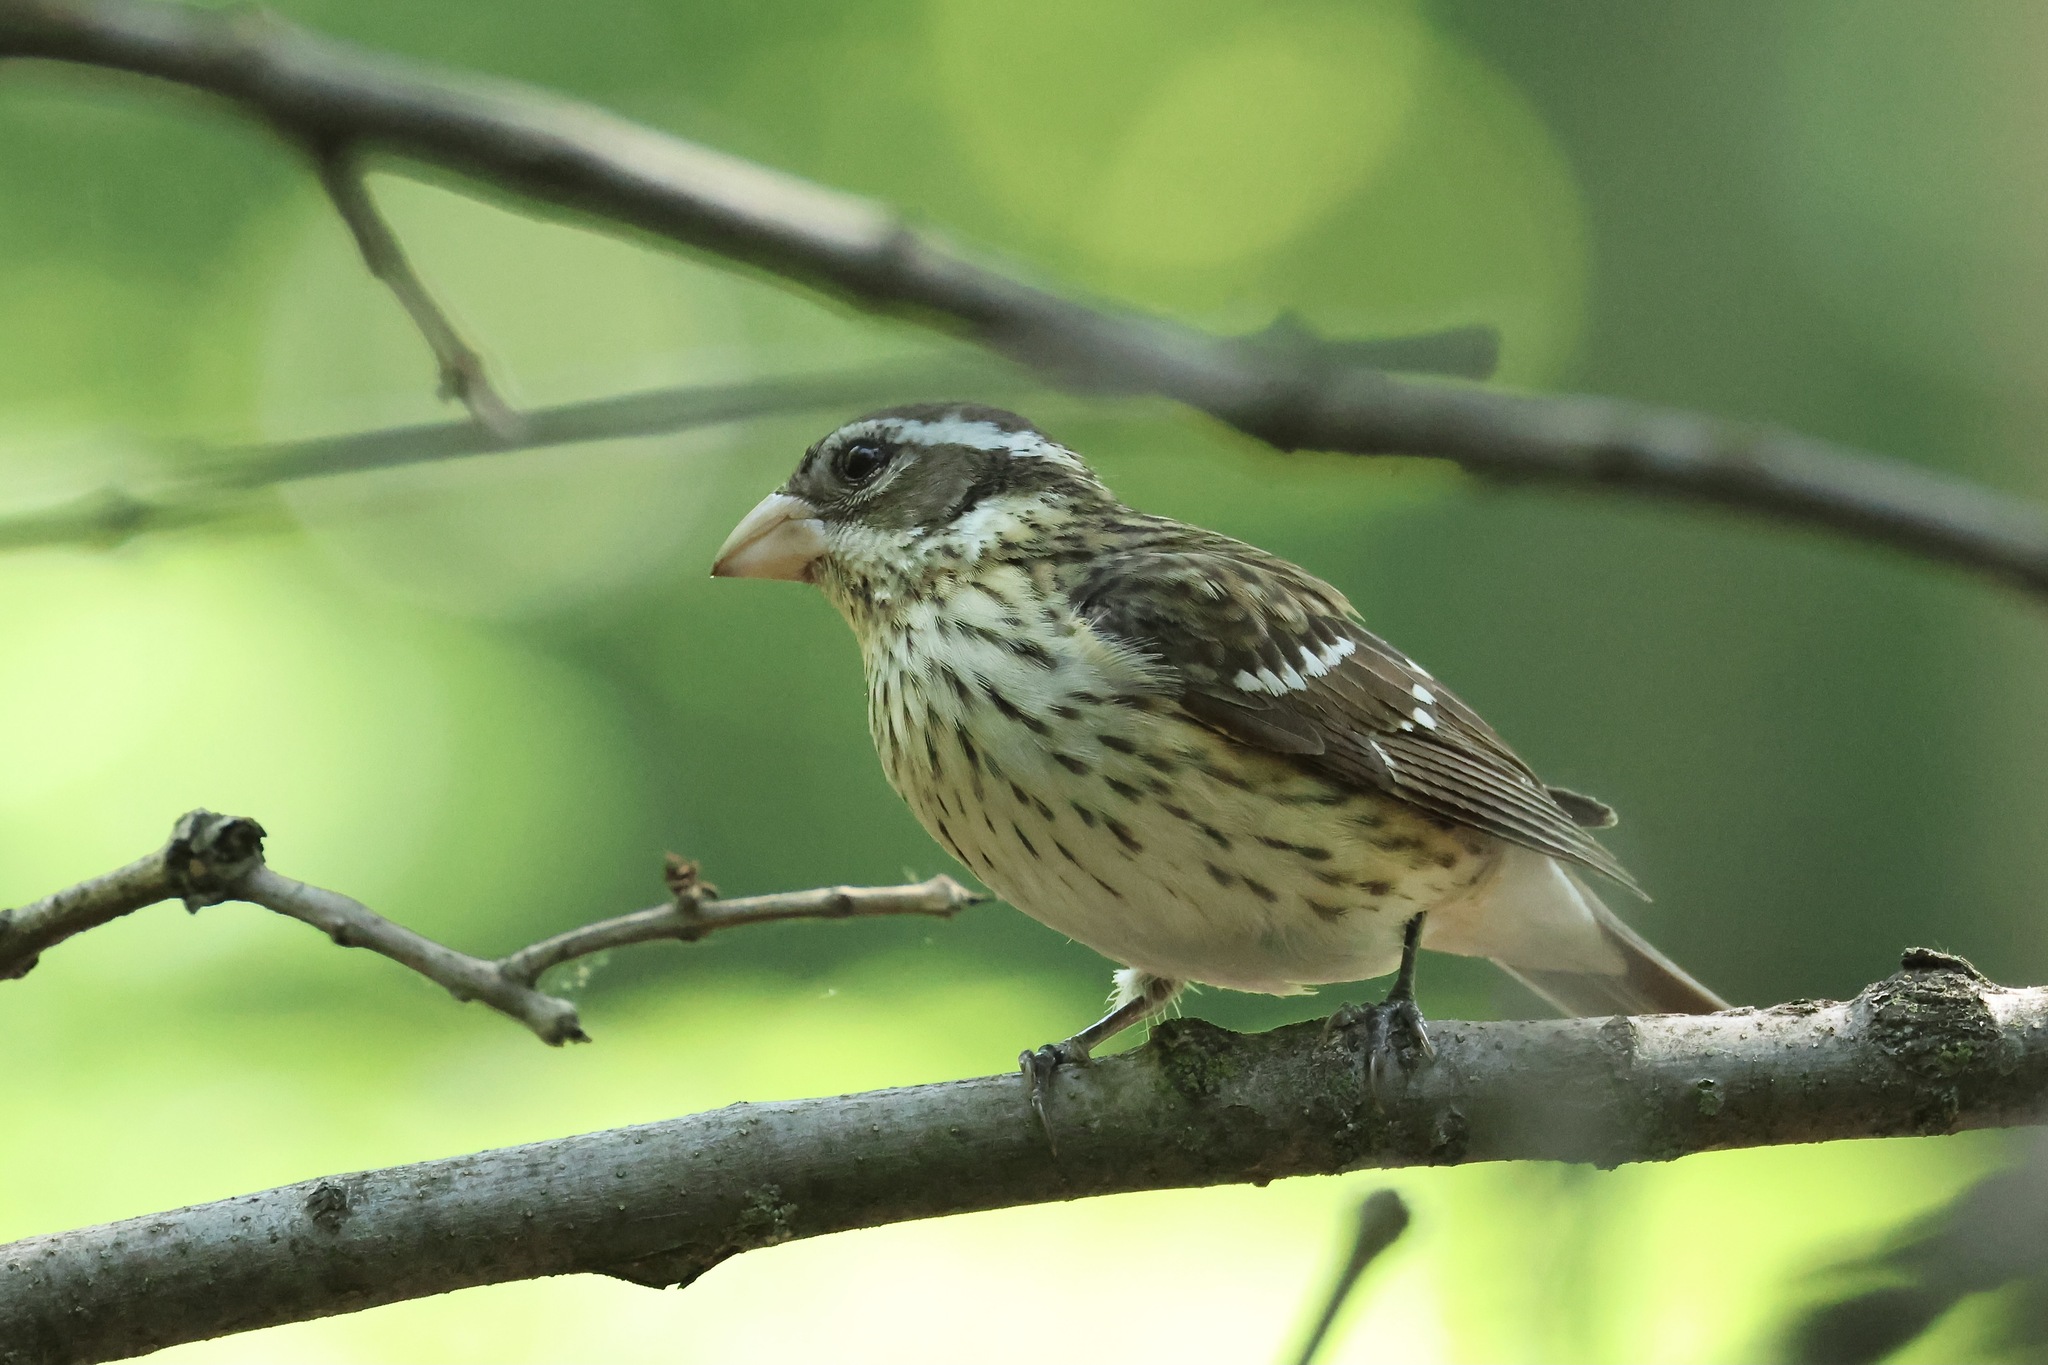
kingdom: Animalia
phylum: Chordata
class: Aves
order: Passeriformes
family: Cardinalidae
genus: Pheucticus
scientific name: Pheucticus ludovicianus
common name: Rose-breasted grosbeak
